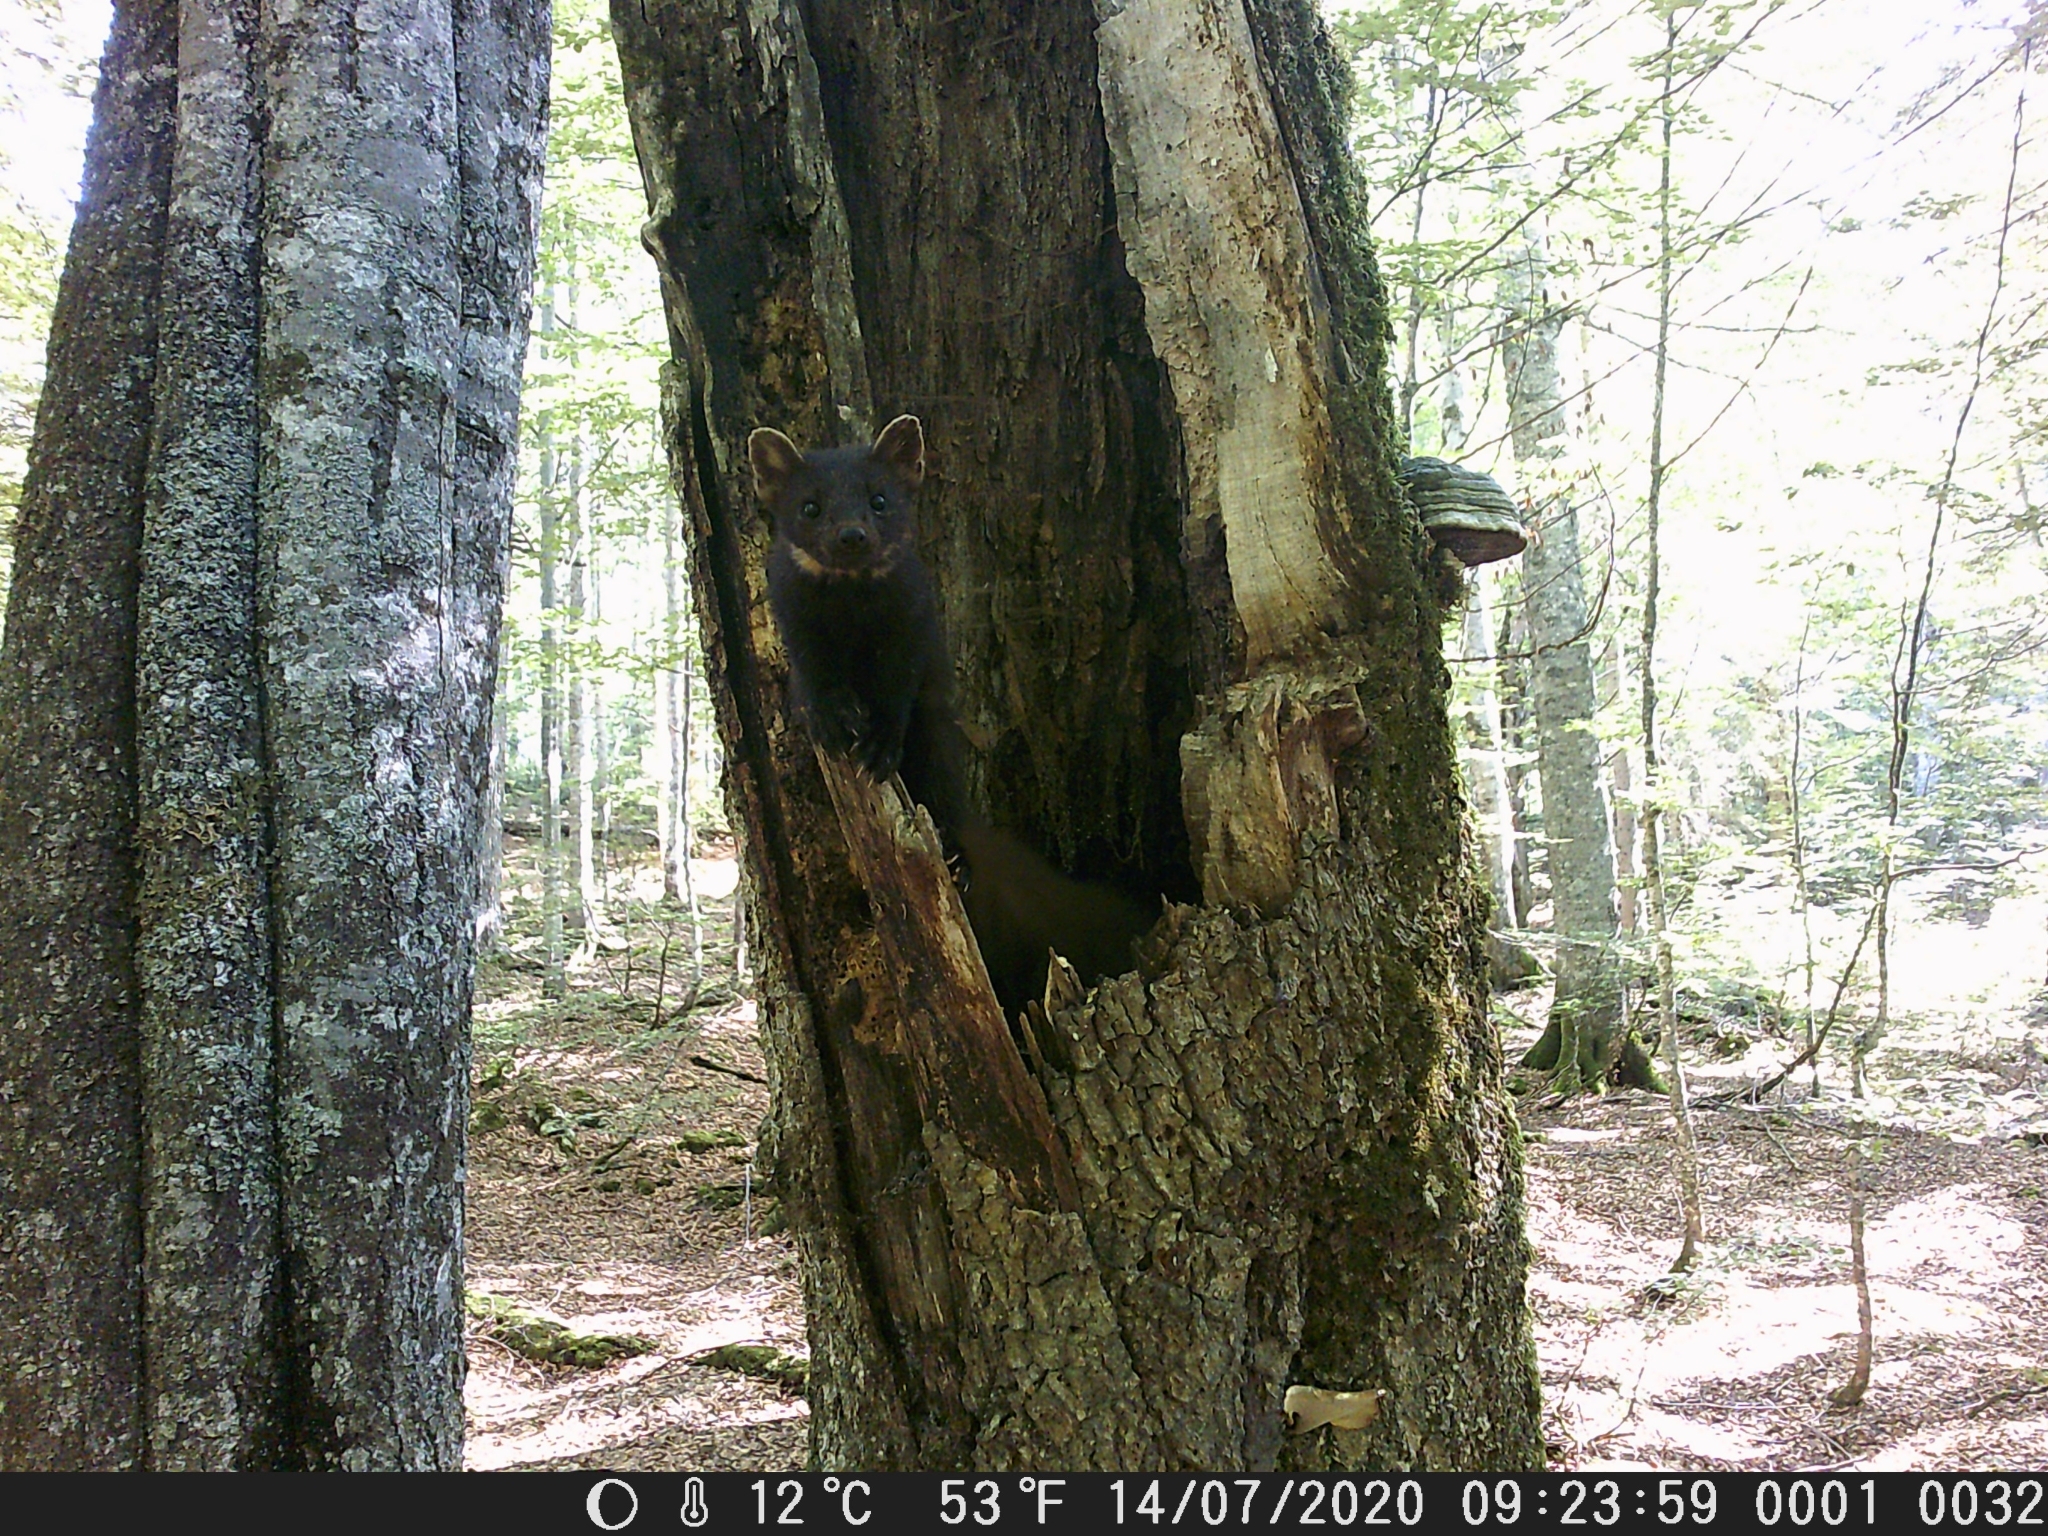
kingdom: Animalia
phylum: Chordata
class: Mammalia
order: Carnivora
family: Mustelidae
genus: Martes
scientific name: Martes martes
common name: European pine marten
